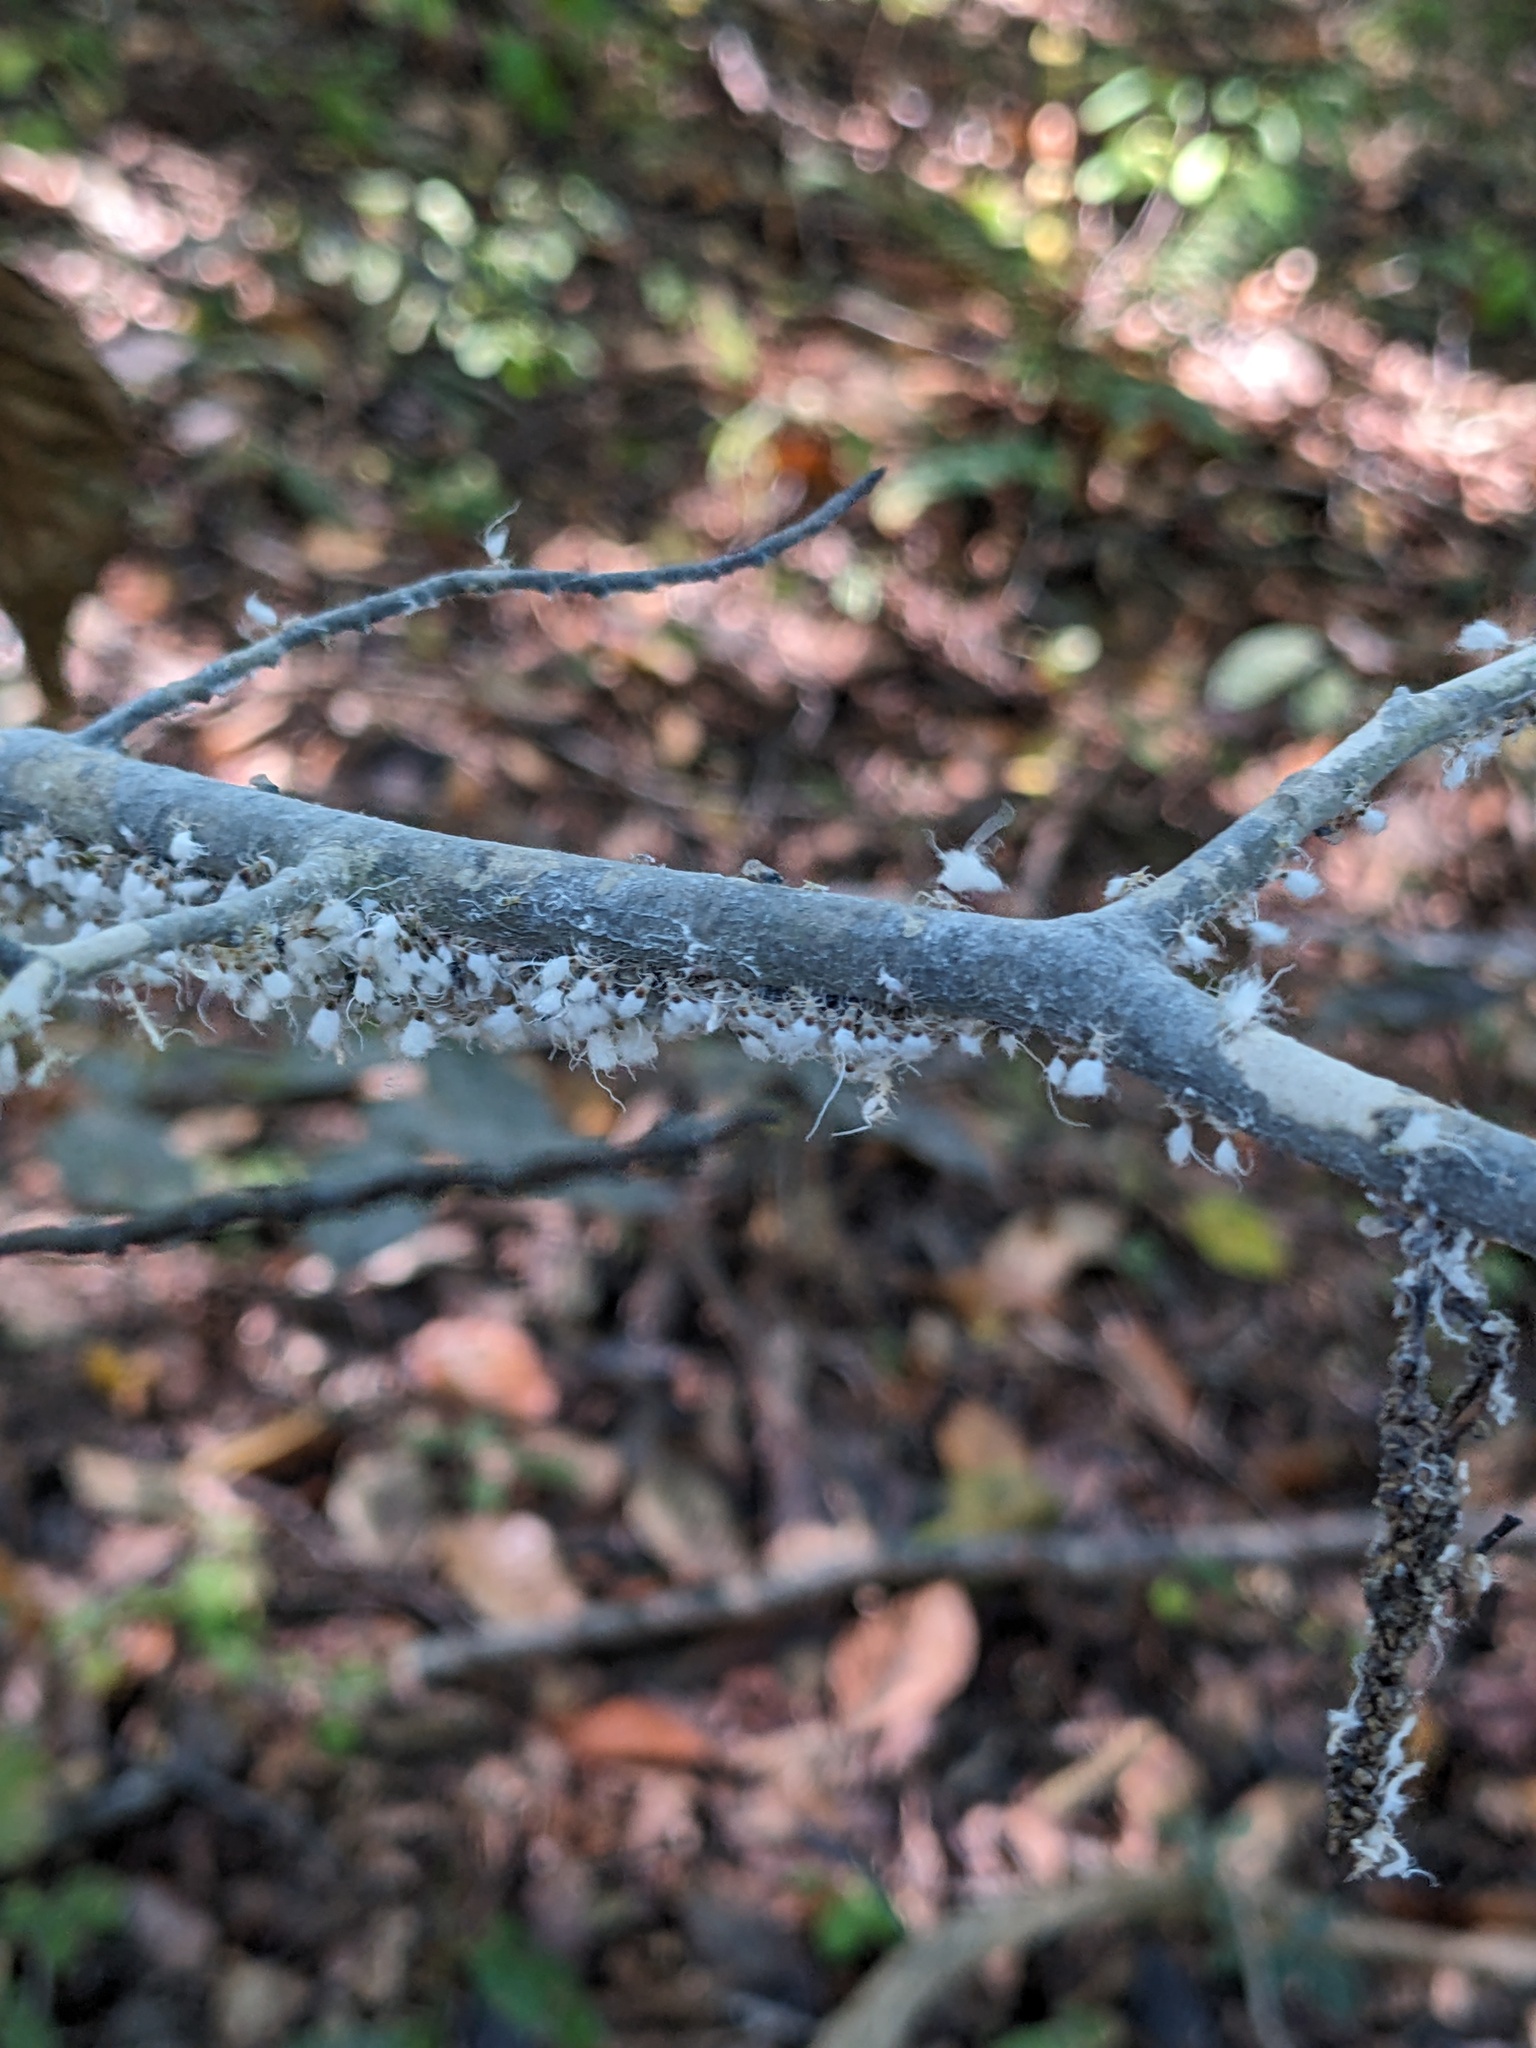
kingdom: Animalia
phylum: Arthropoda
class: Insecta
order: Hemiptera
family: Aphididae
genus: Grylloprociphilus
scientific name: Grylloprociphilus imbricator
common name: Beech blight aphid
